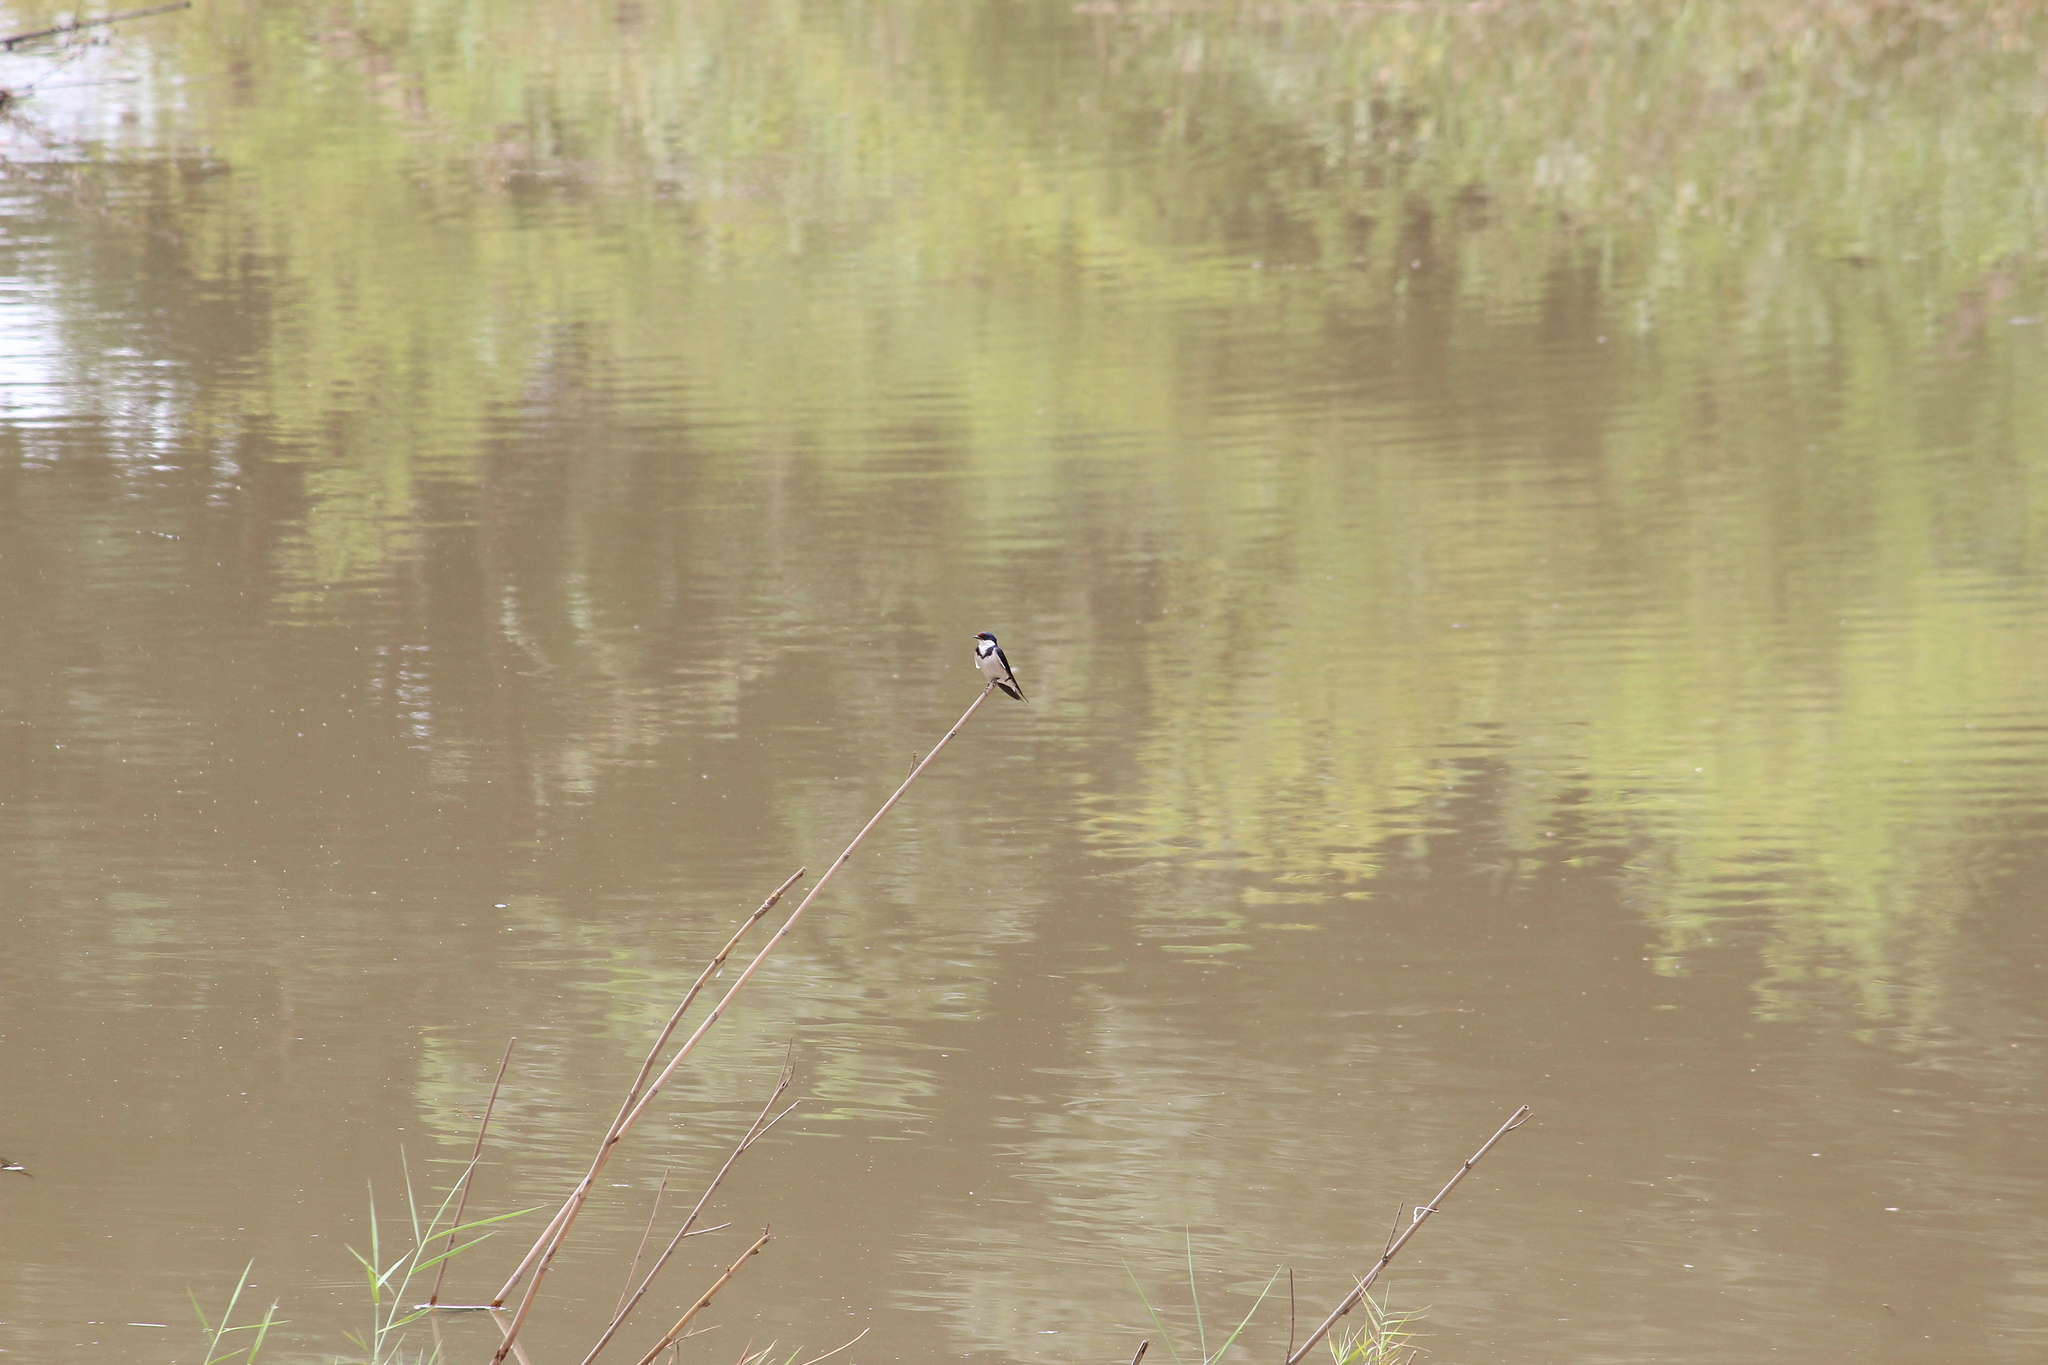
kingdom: Animalia
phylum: Chordata
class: Aves
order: Passeriformes
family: Hirundinidae
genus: Hirundo
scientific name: Hirundo albigularis
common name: White-throated swallow
